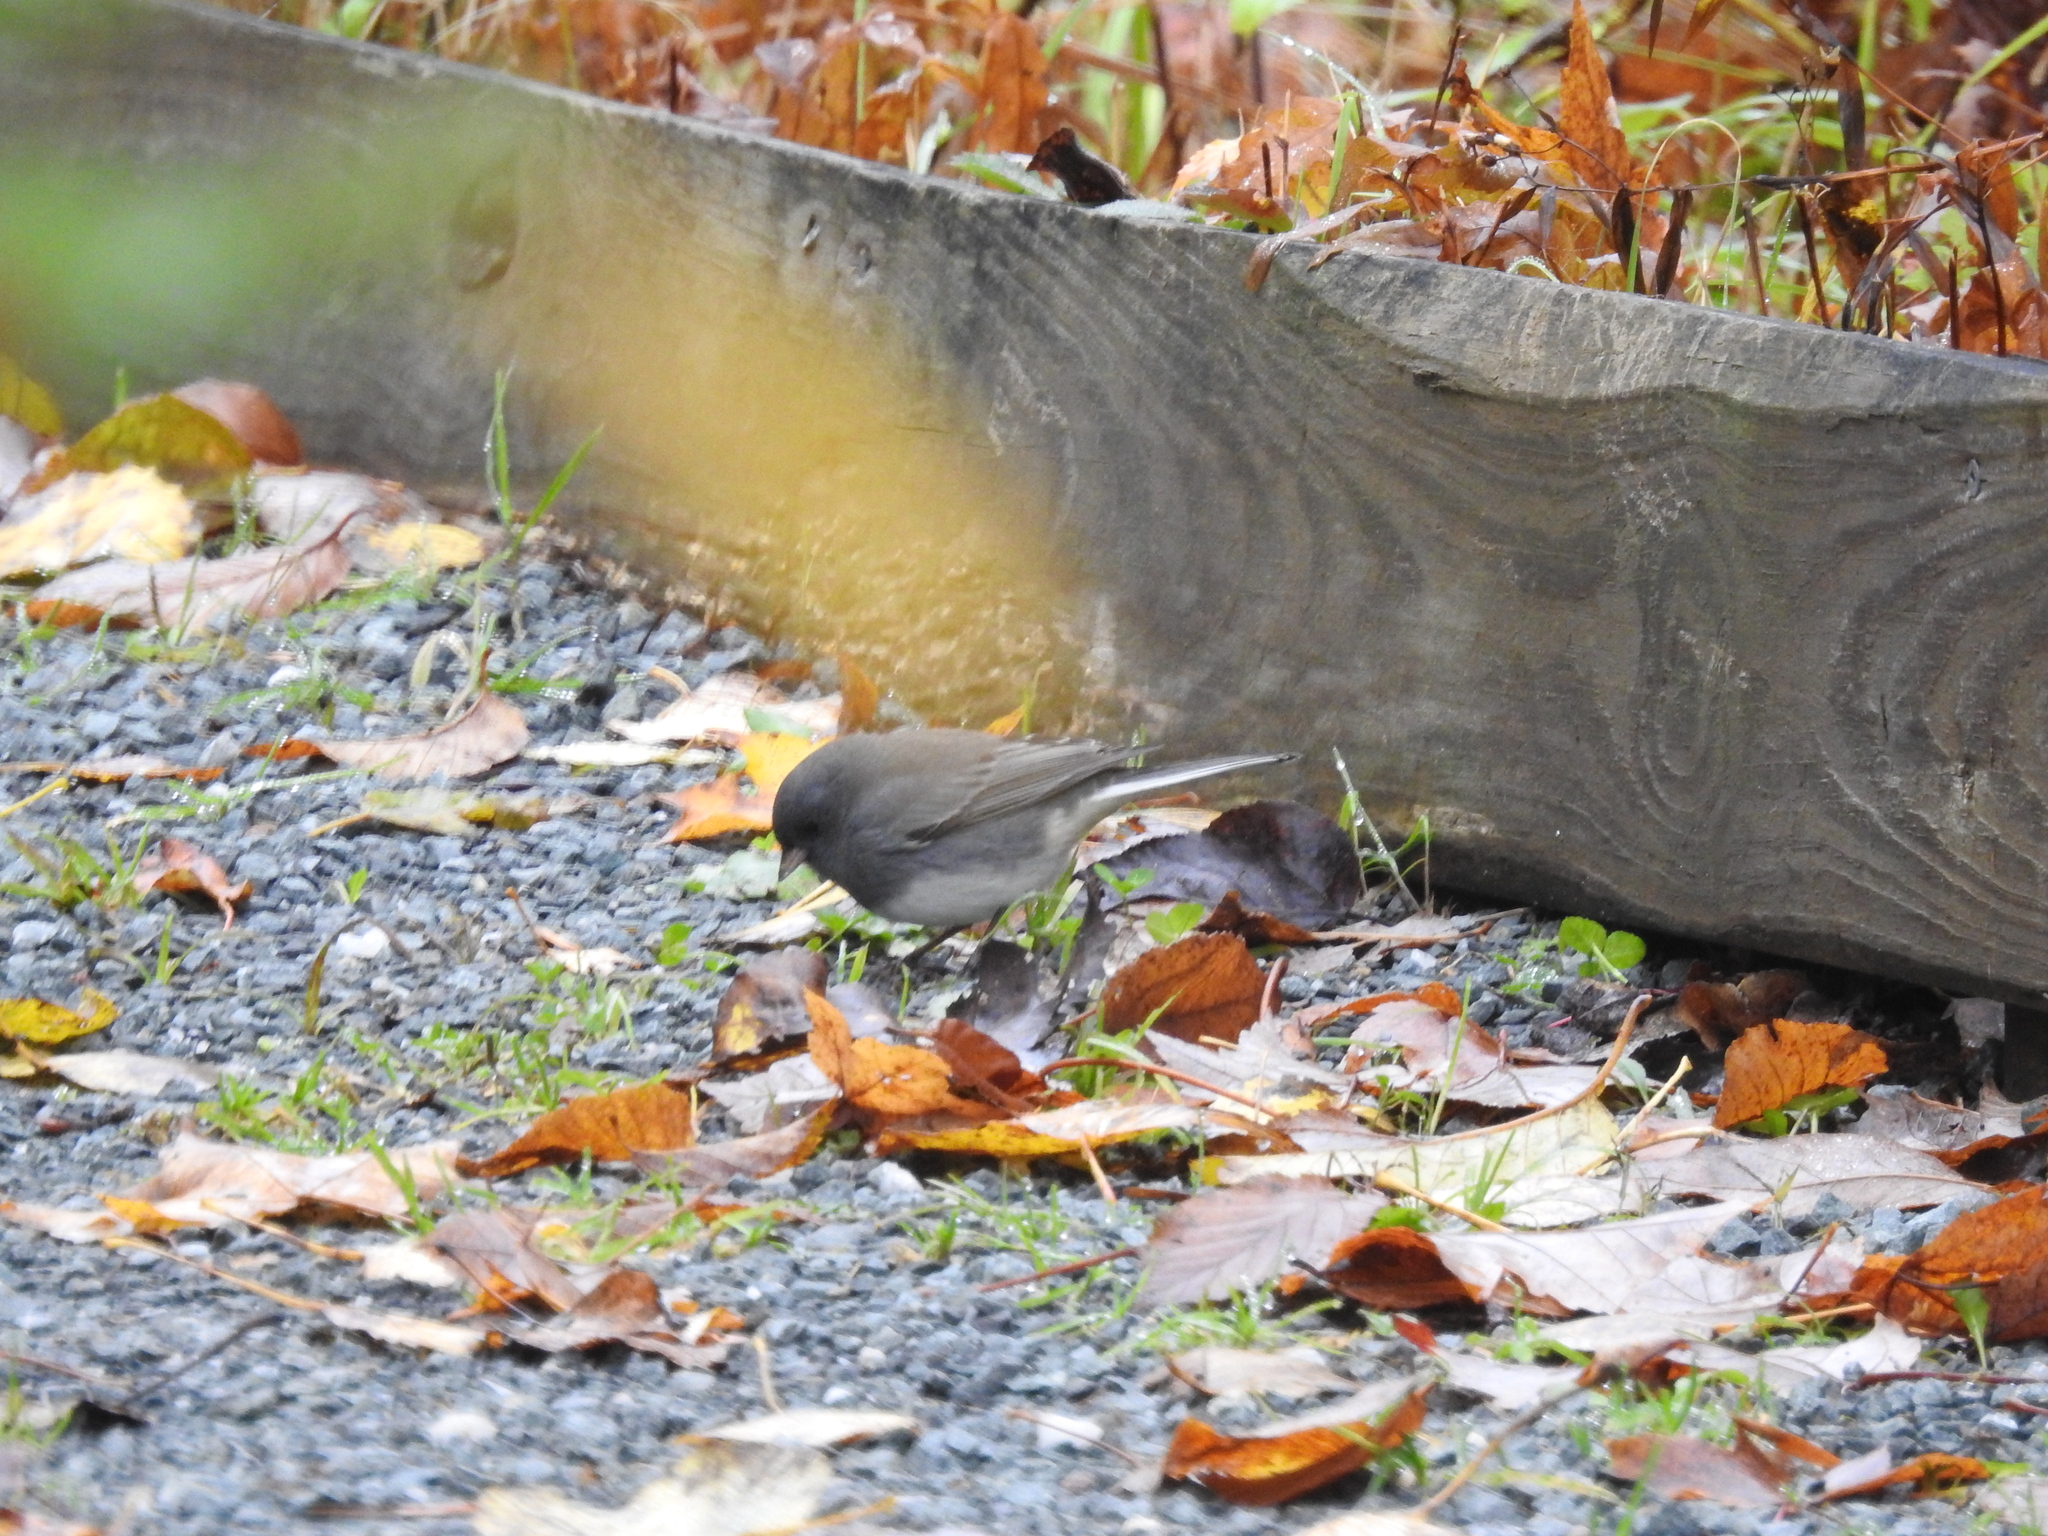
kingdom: Animalia
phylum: Chordata
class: Aves
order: Passeriformes
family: Passerellidae
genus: Junco
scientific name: Junco hyemalis
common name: Dark-eyed junco
